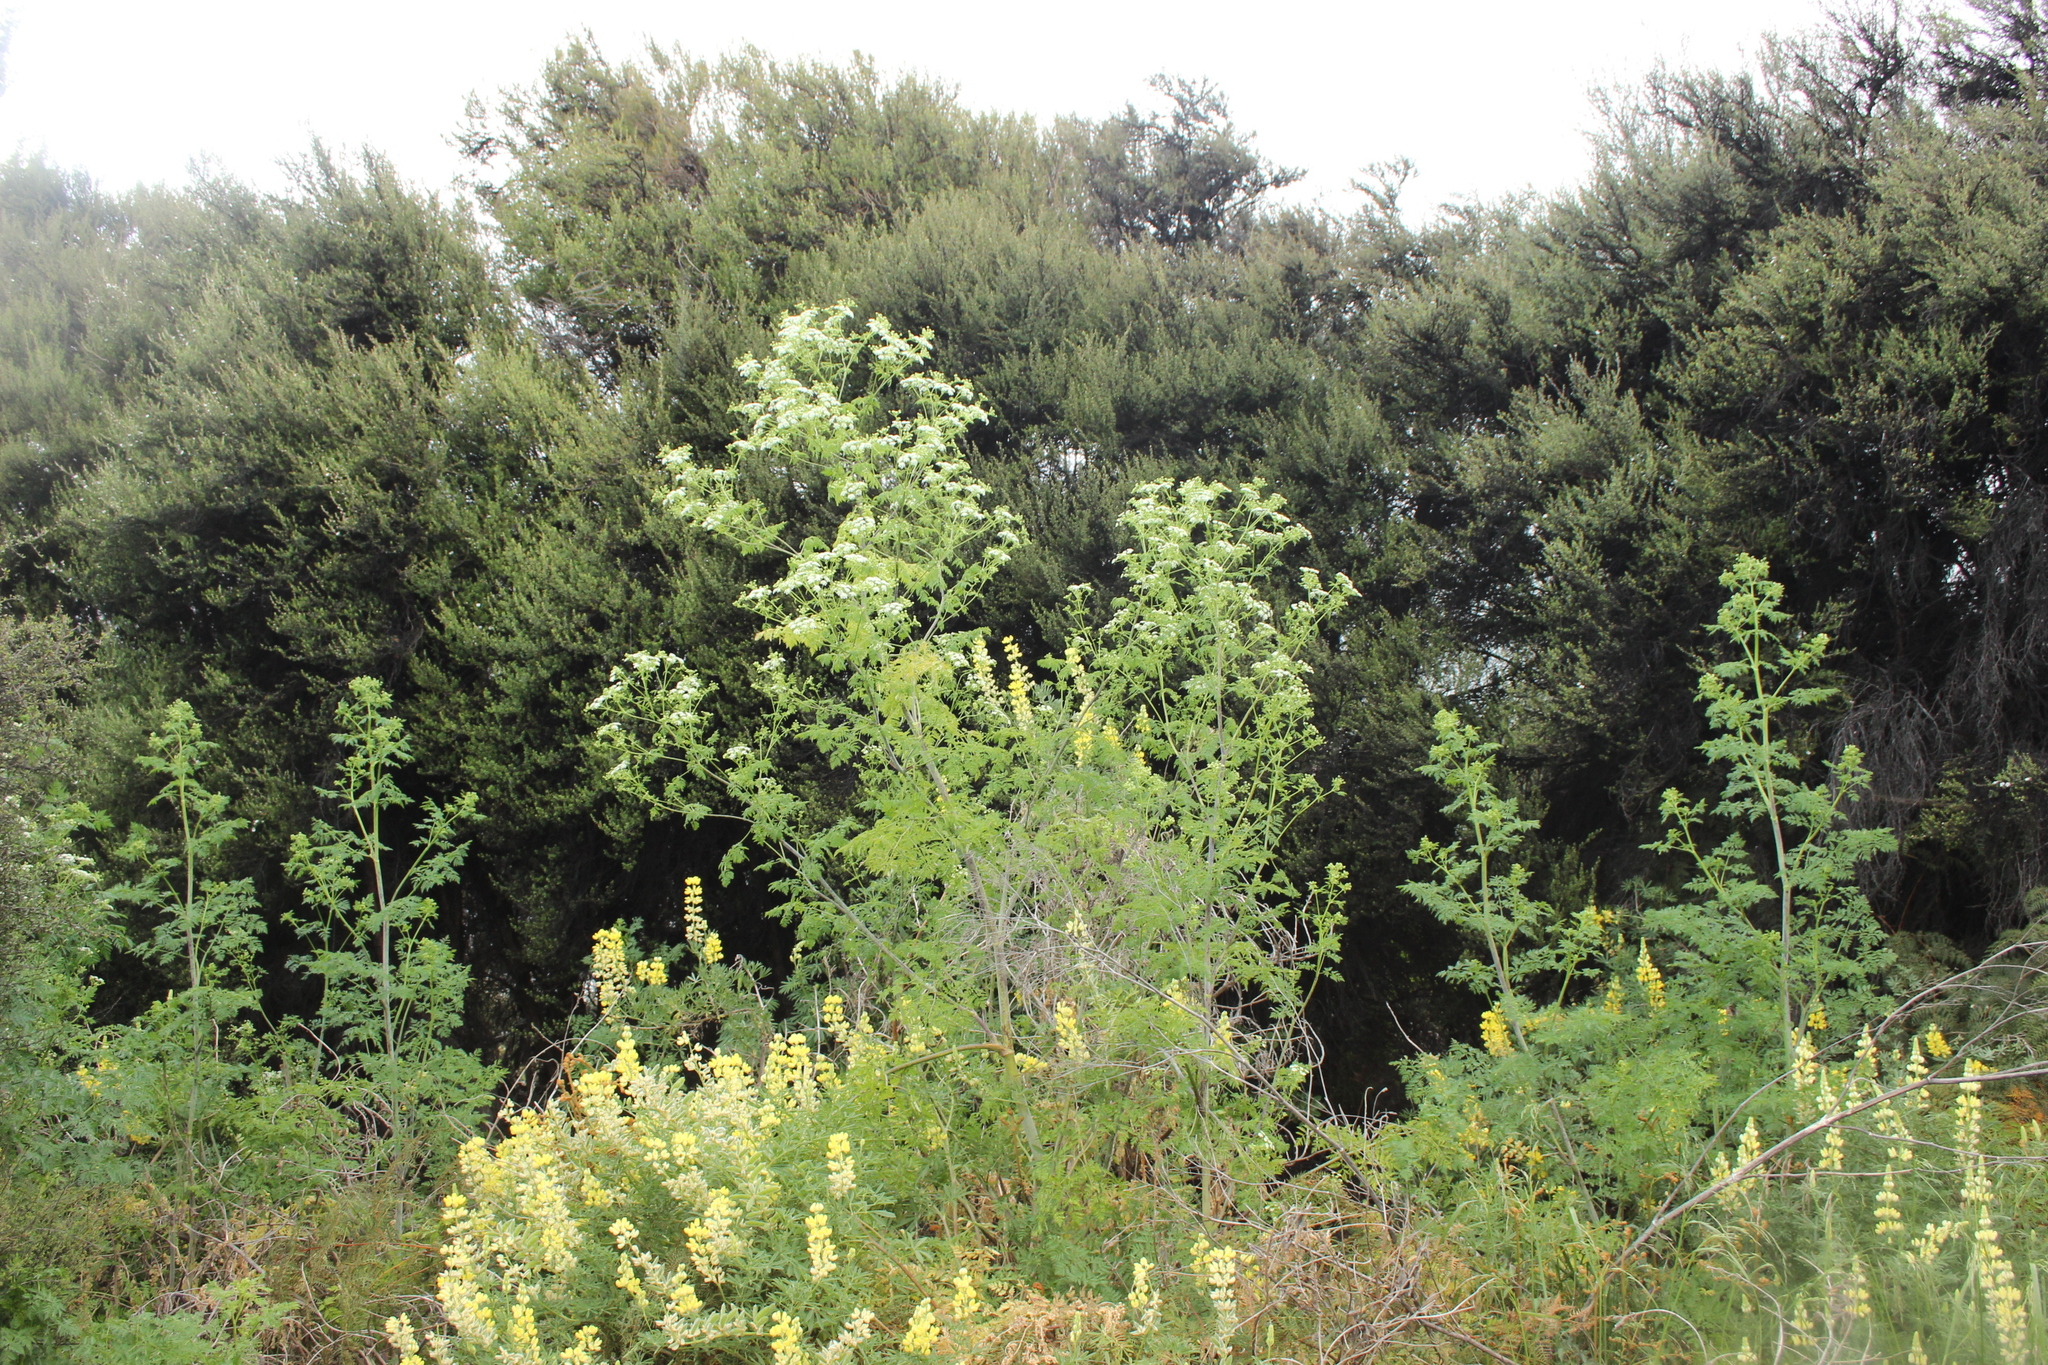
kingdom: Plantae
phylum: Tracheophyta
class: Magnoliopsida
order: Apiales
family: Apiaceae
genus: Conium
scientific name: Conium maculatum
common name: Hemlock
